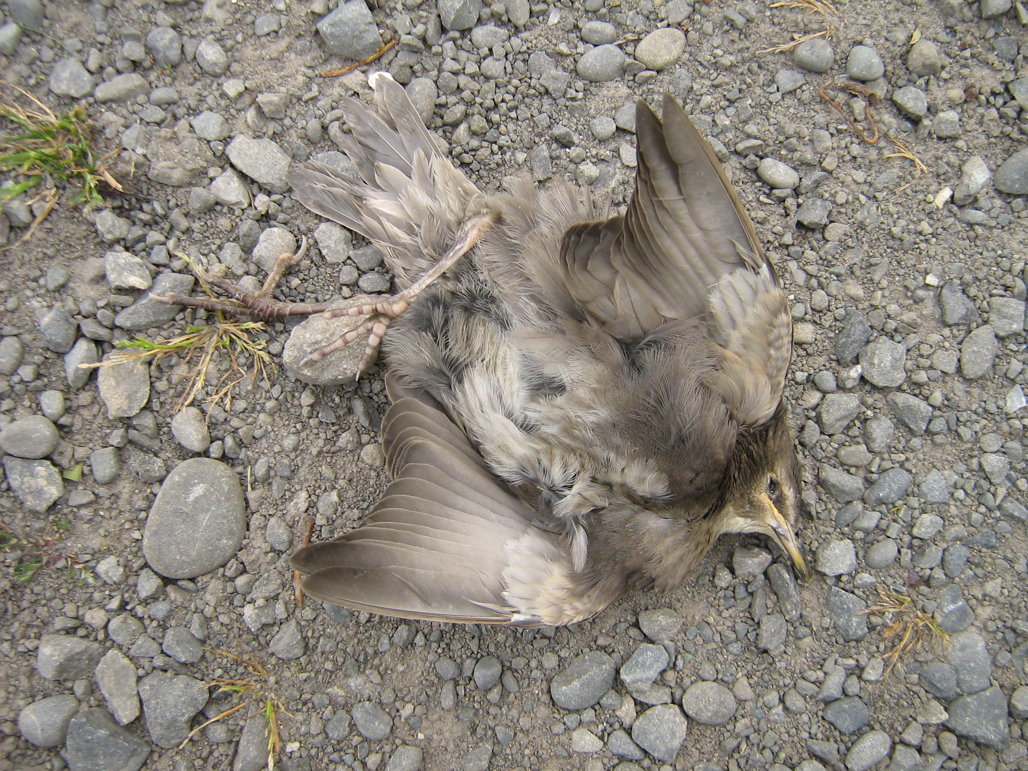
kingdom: Animalia
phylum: Chordata
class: Aves
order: Passeriformes
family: Sturnidae
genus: Sturnus
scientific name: Sturnus vulgaris
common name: Common starling
